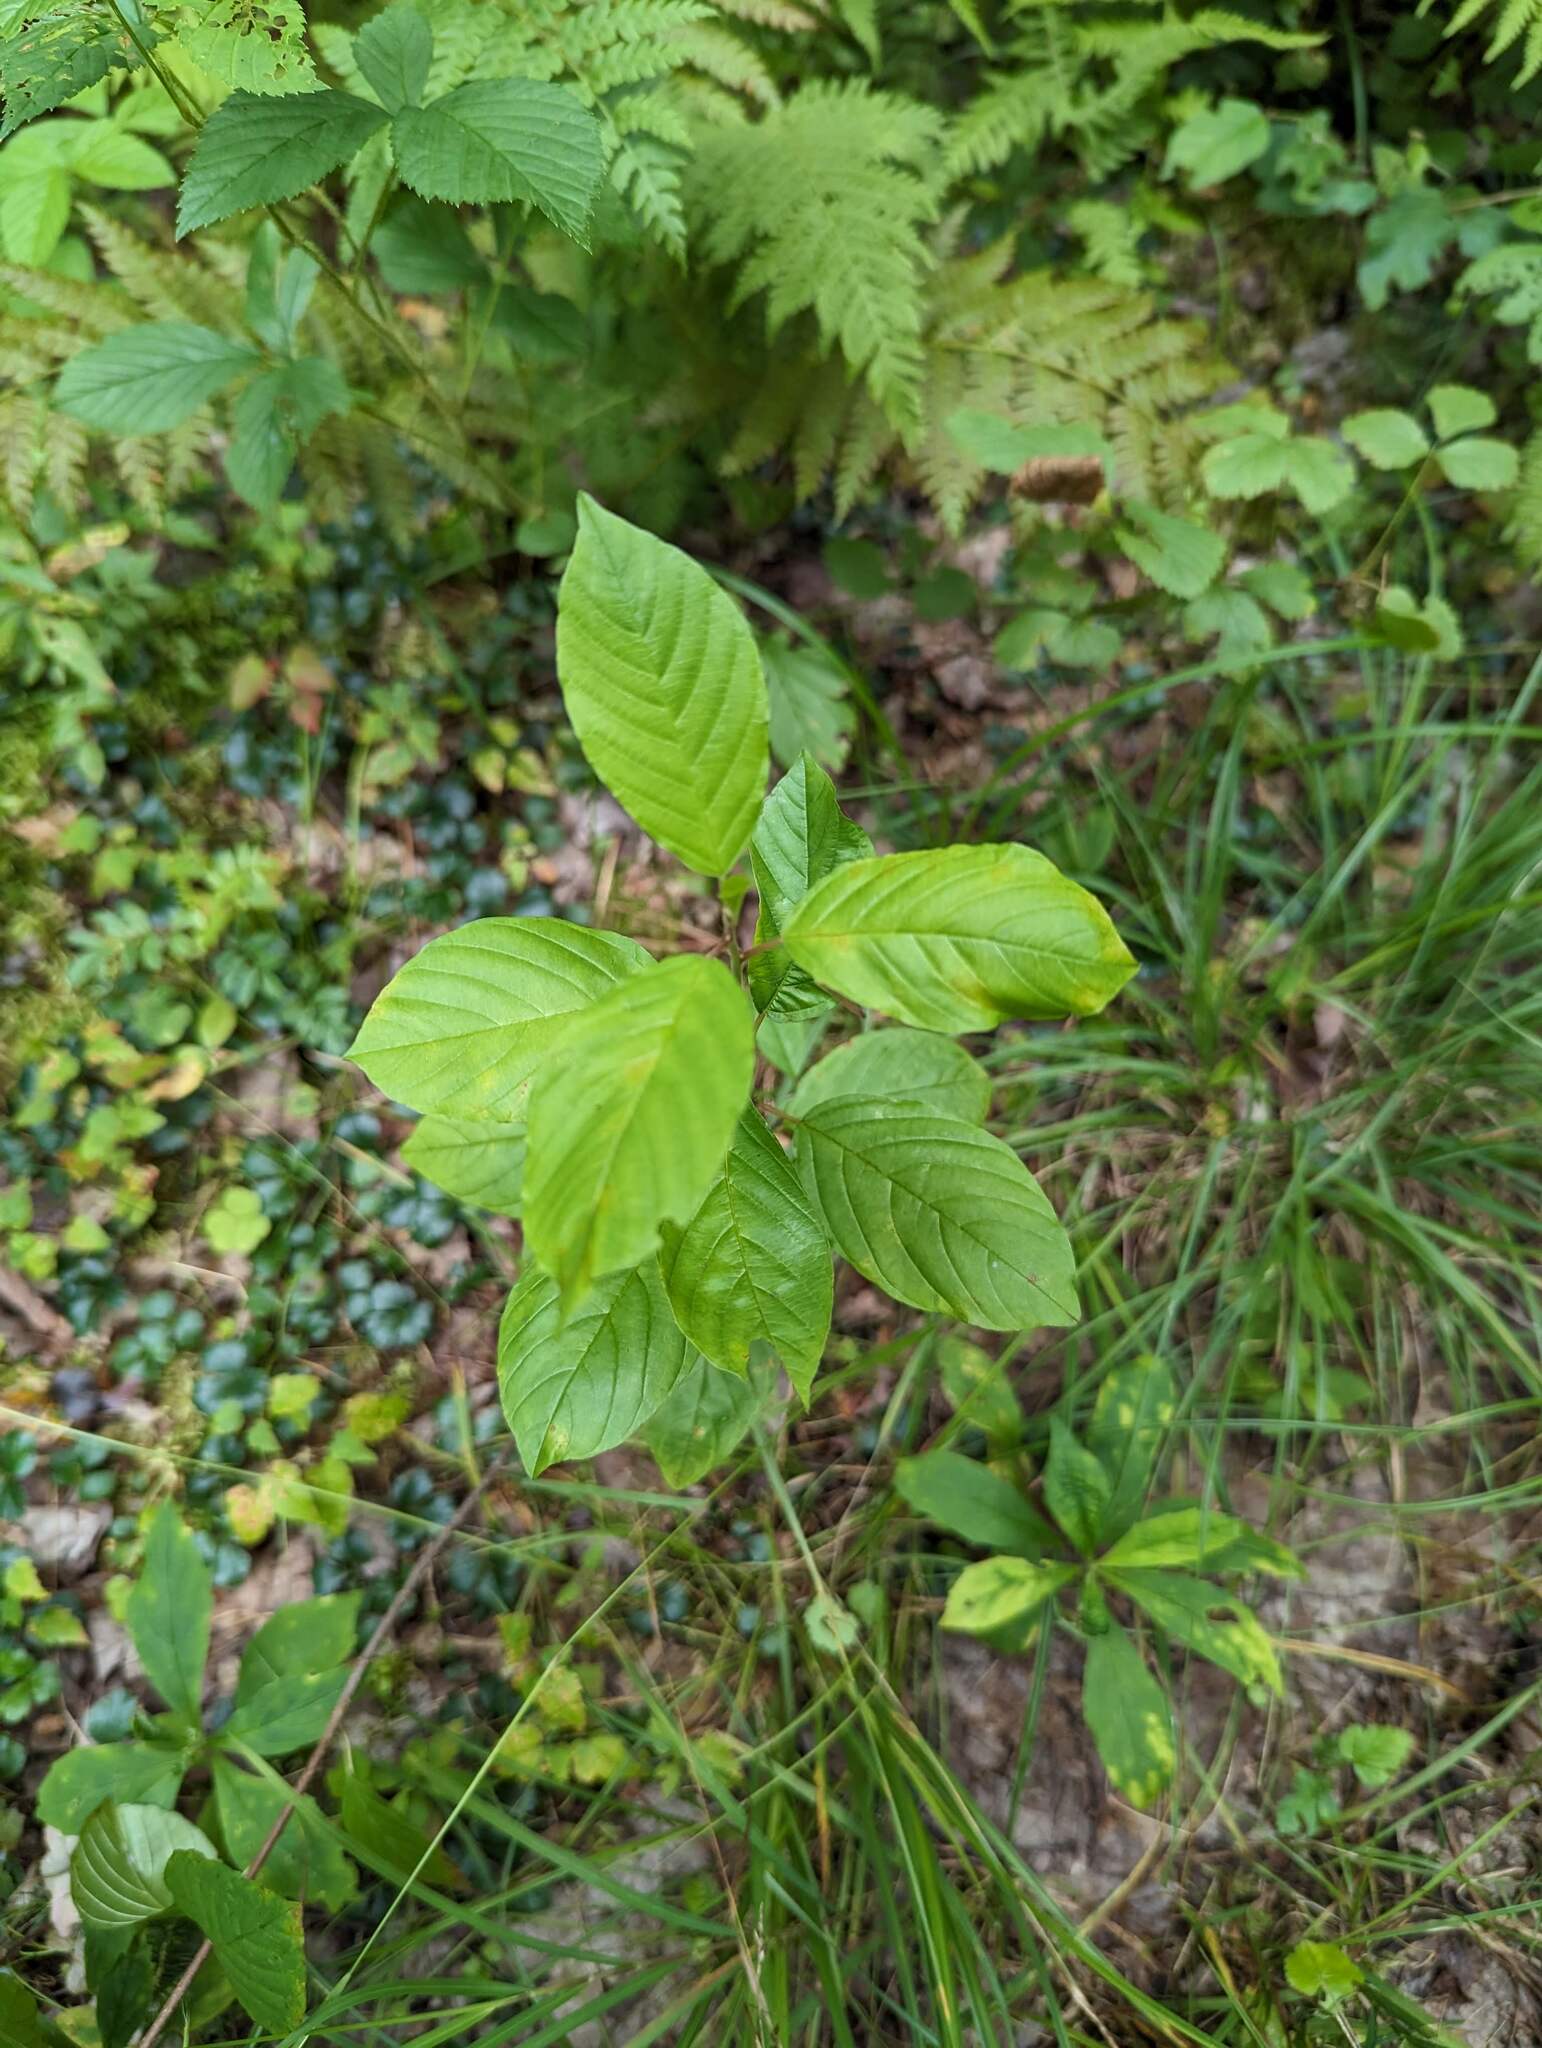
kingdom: Plantae
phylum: Tracheophyta
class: Magnoliopsida
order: Rosales
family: Rhamnaceae
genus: Frangula
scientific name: Frangula alnus
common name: Alder buckthorn
